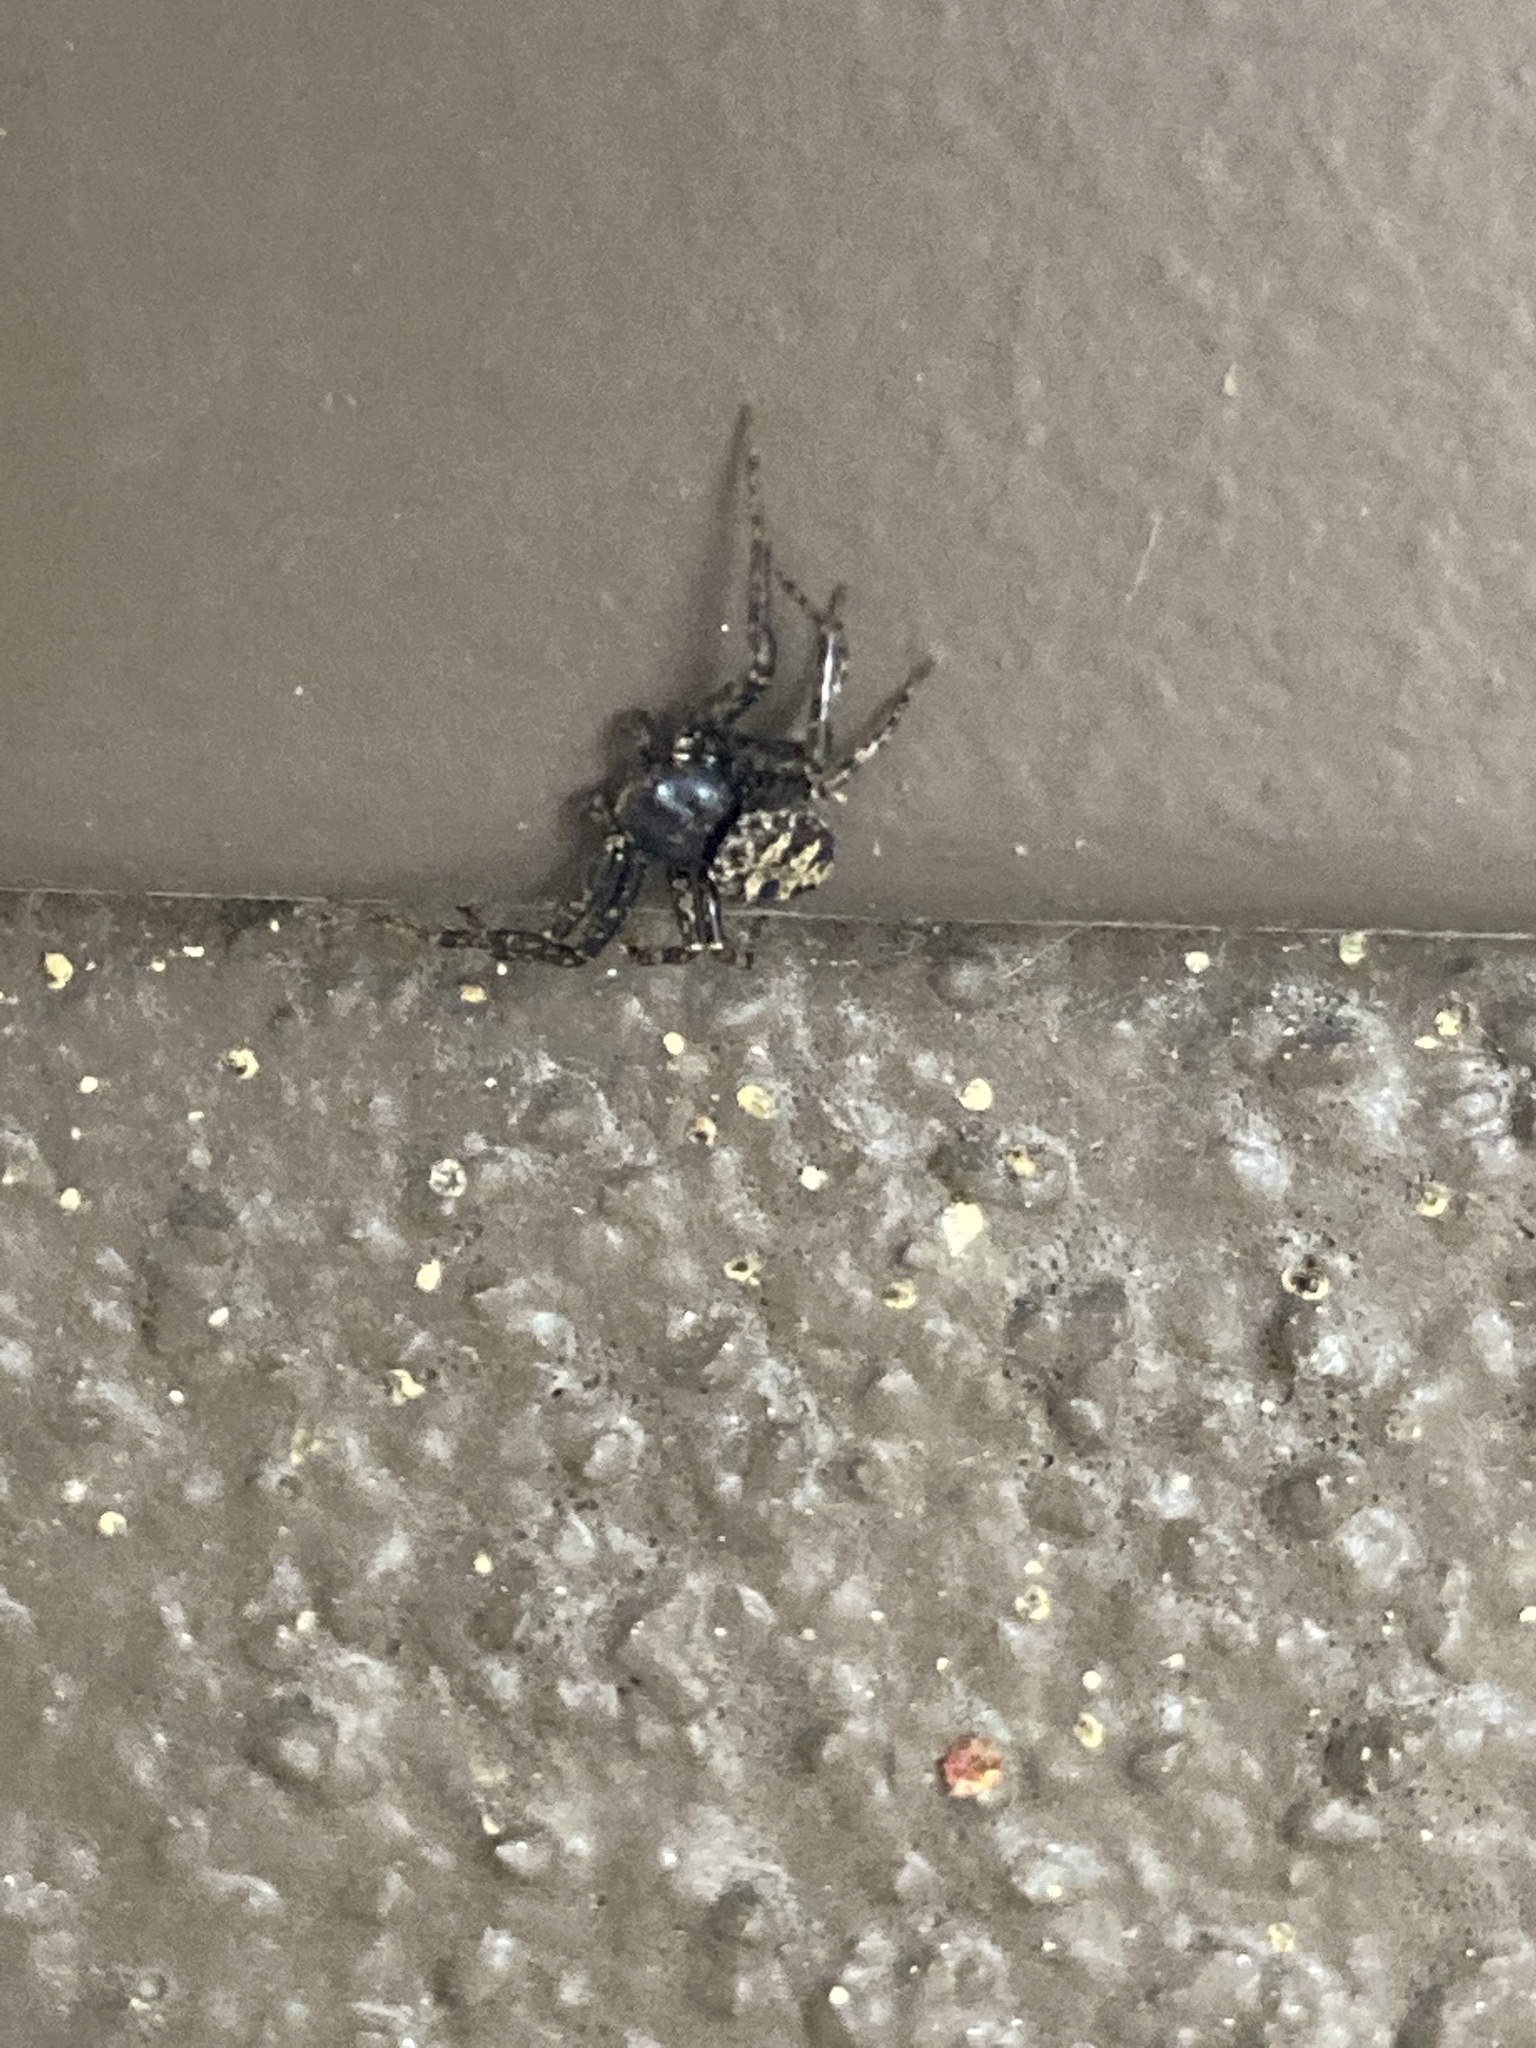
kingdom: Animalia
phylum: Arthropoda
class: Arachnida
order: Araneae
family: Thomisidae
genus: Coriarachne
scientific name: Coriarachne brunneipes
